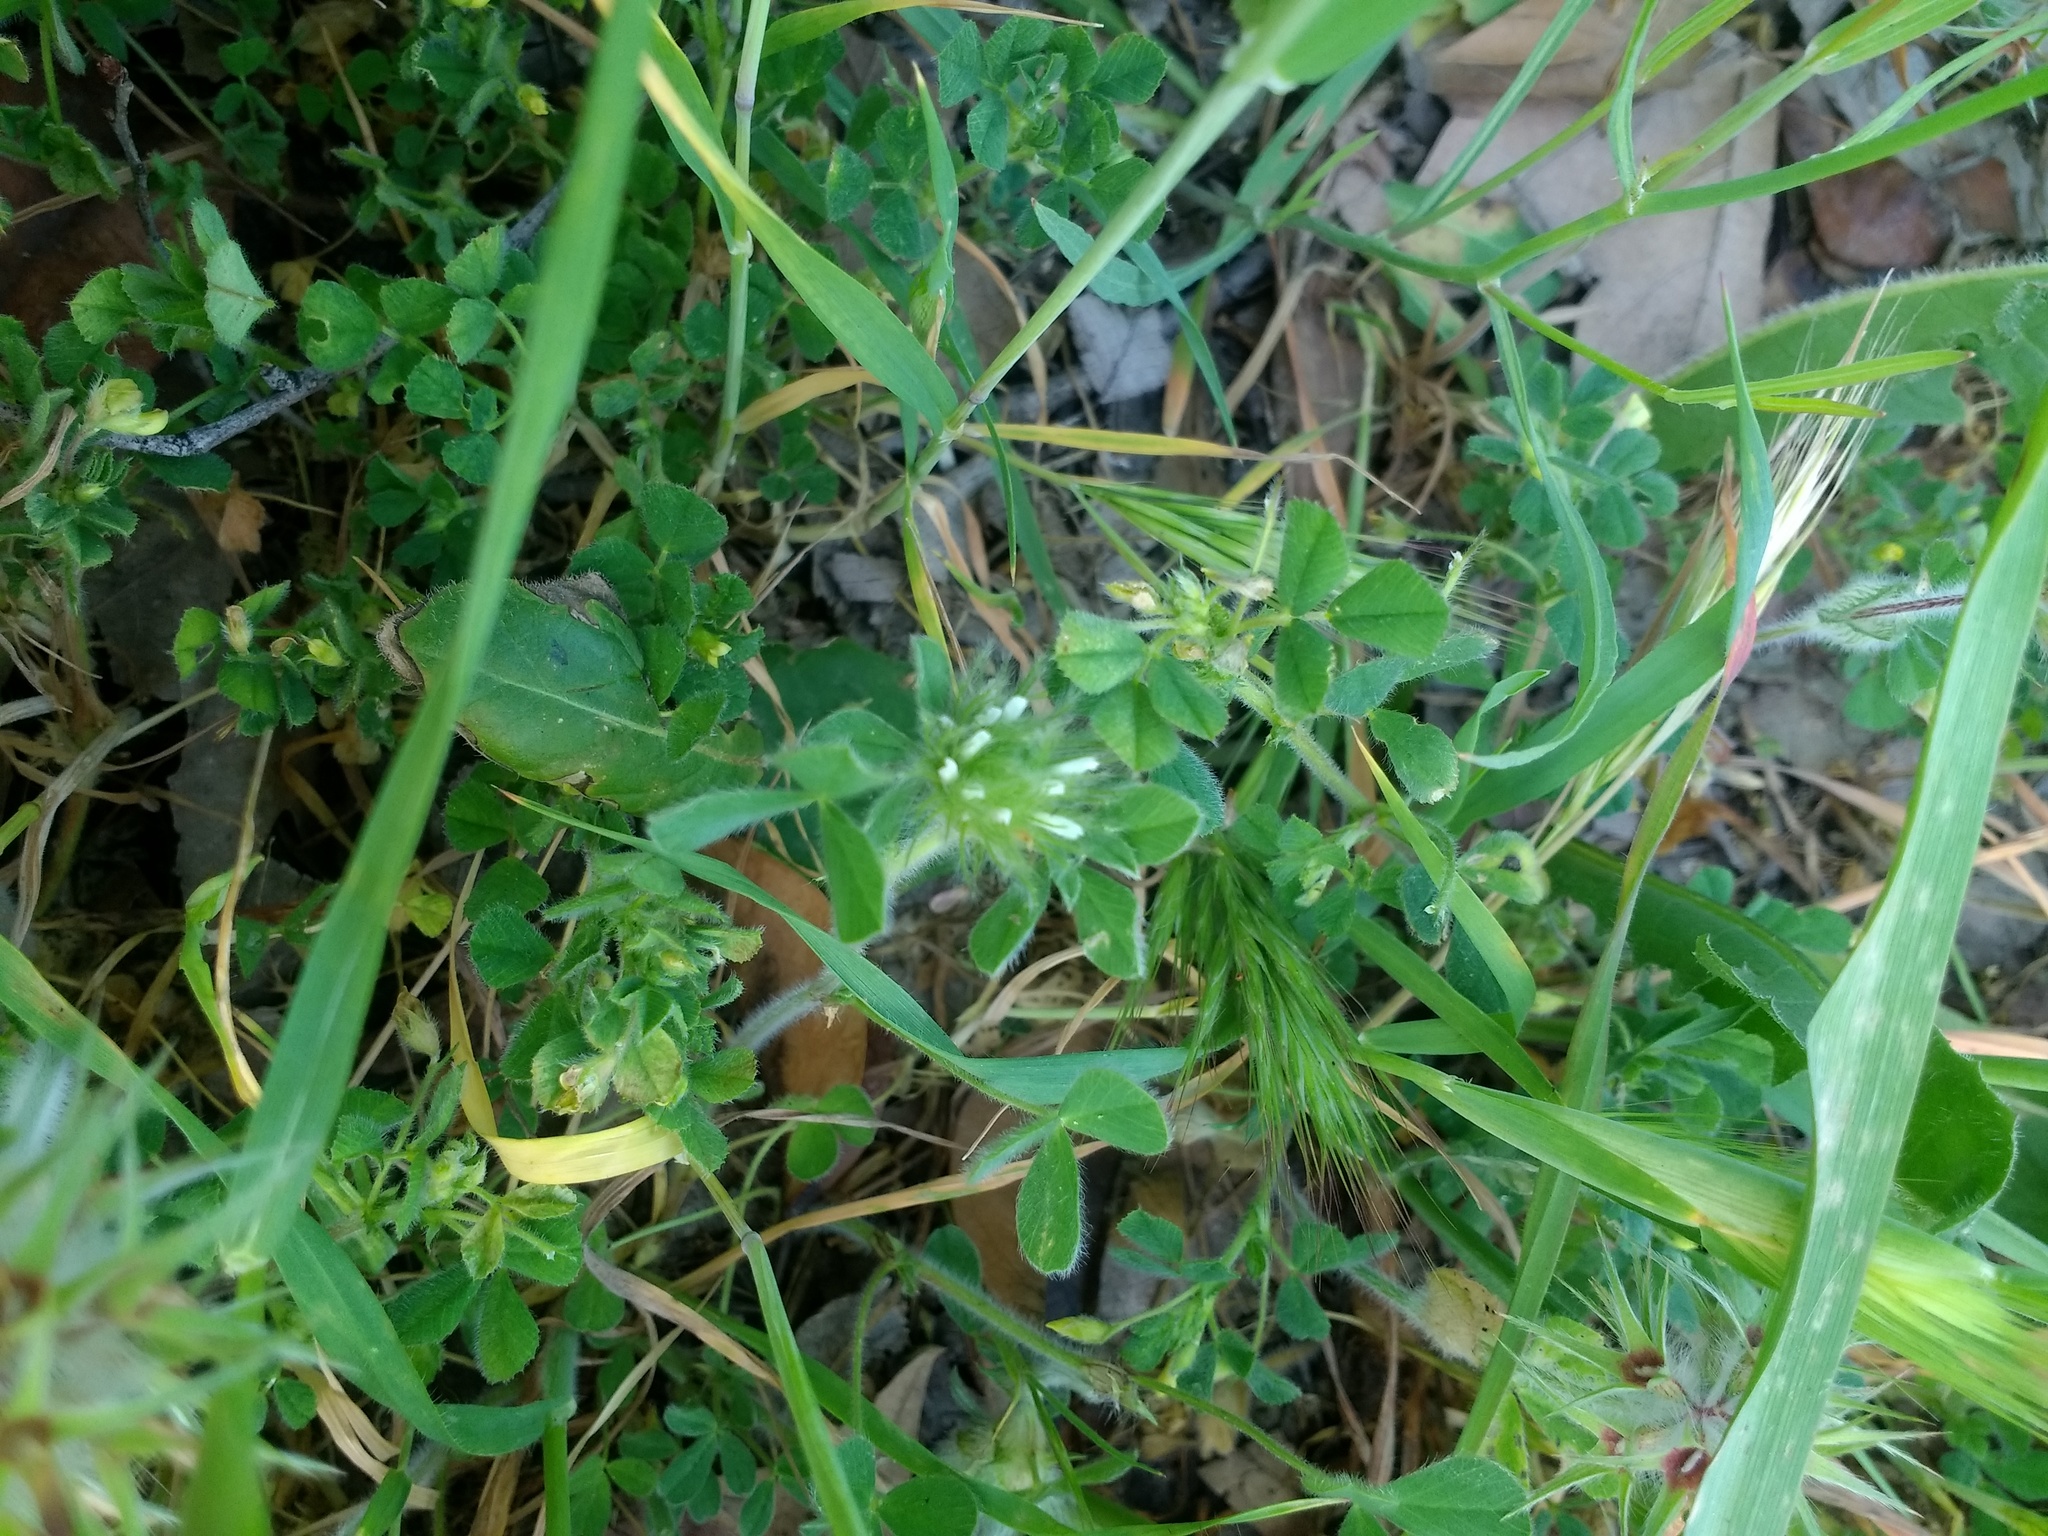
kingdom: Plantae
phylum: Tracheophyta
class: Magnoliopsida
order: Fabales
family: Fabaceae
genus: Trifolium
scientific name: Trifolium cherleri
